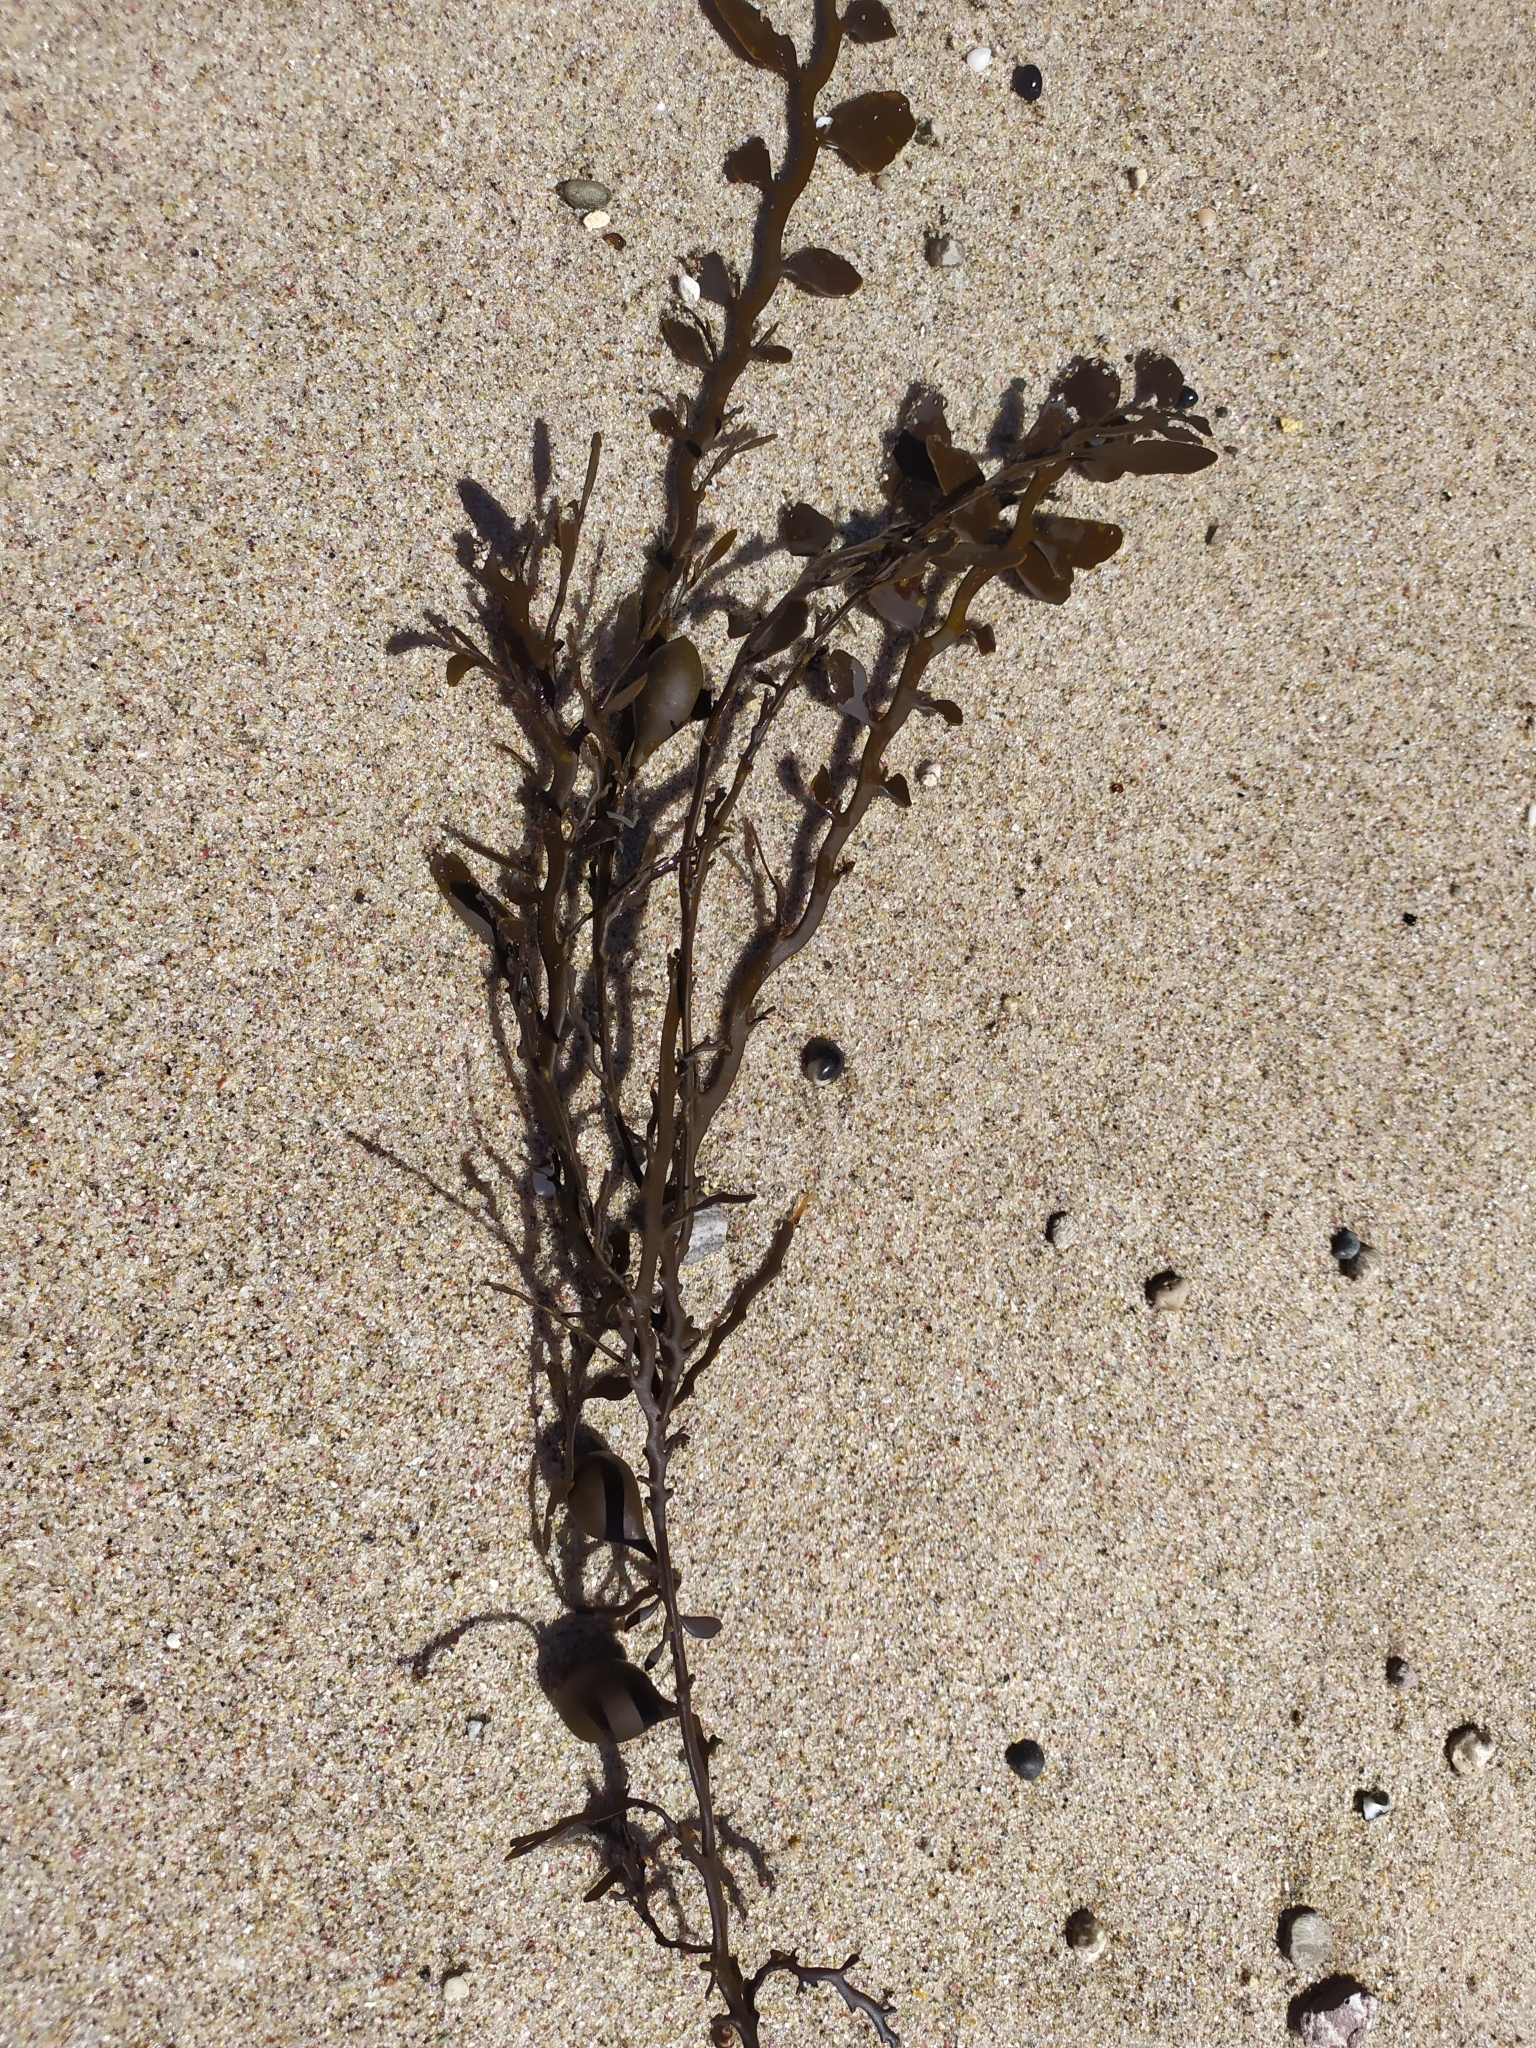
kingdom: Chromista
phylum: Ochrophyta
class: Phaeophyceae
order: Fucales
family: Sargassaceae
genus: Carpophyllum
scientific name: Carpophyllum maschalocarpum
